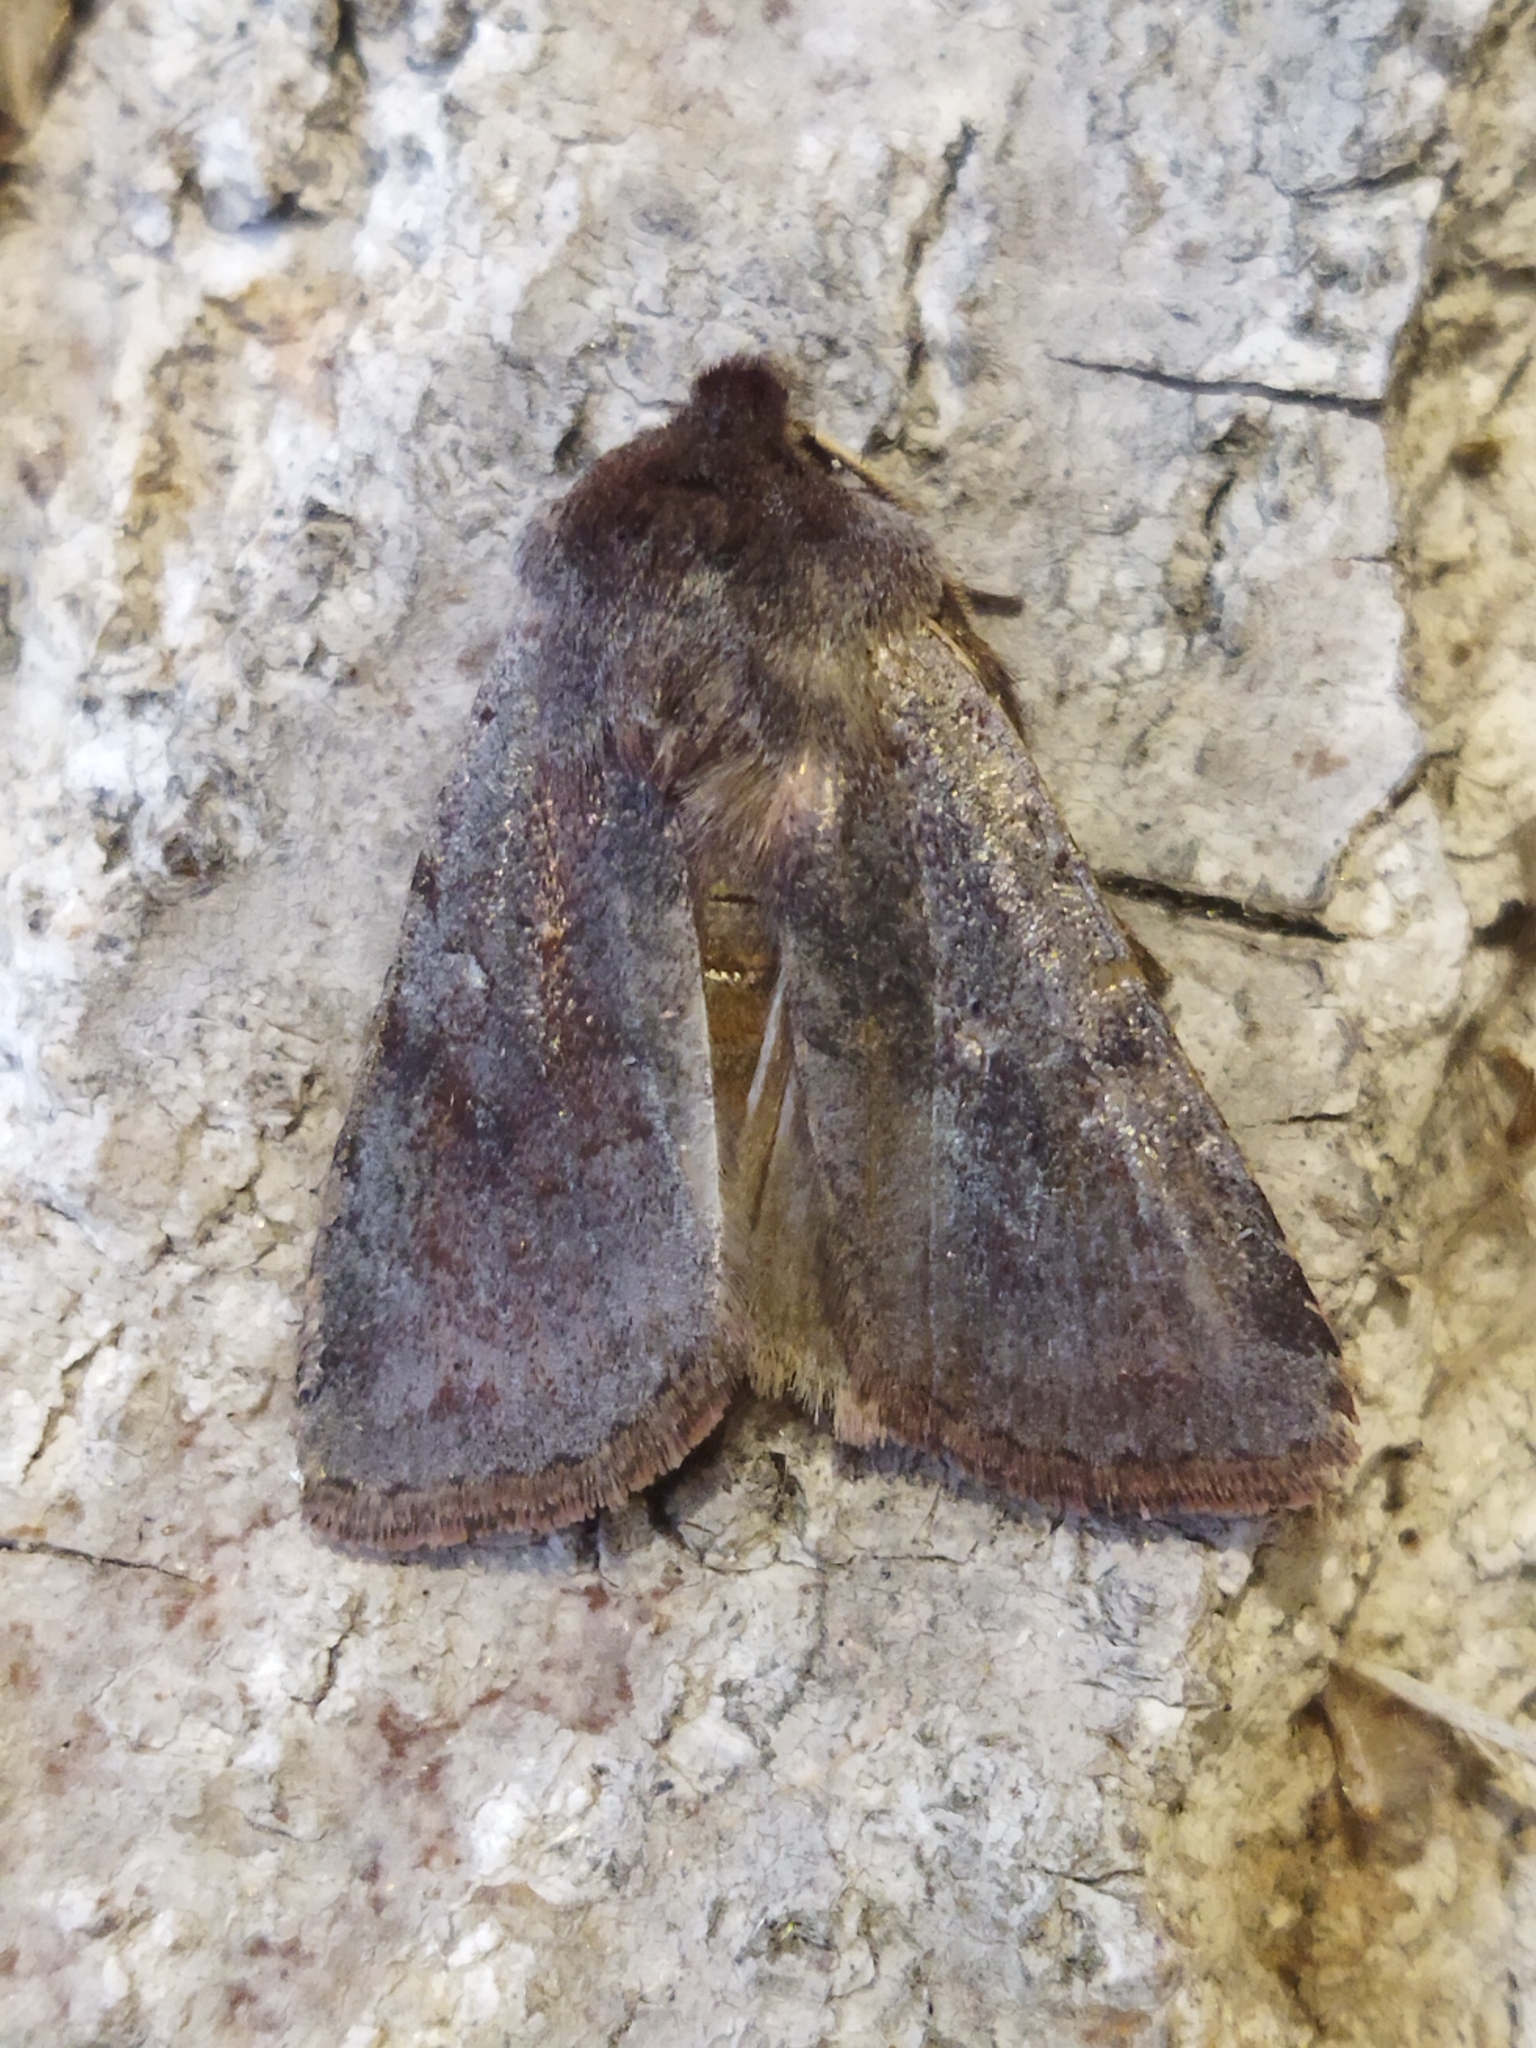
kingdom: Animalia
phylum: Arthropoda
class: Insecta
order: Lepidoptera
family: Noctuidae
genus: Cerastis
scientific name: Cerastis rubricosa
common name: Red chestnut
